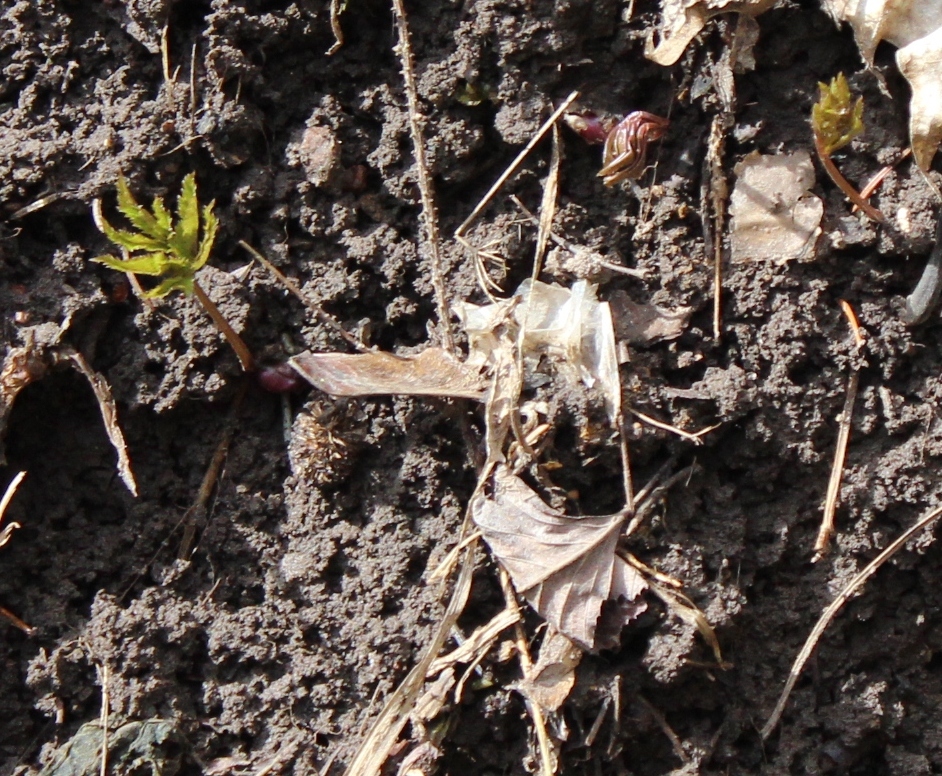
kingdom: Plantae
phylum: Tracheophyta
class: Magnoliopsida
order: Apiales
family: Apiaceae
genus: Aegopodium
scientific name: Aegopodium podagraria
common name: Ground-elder
